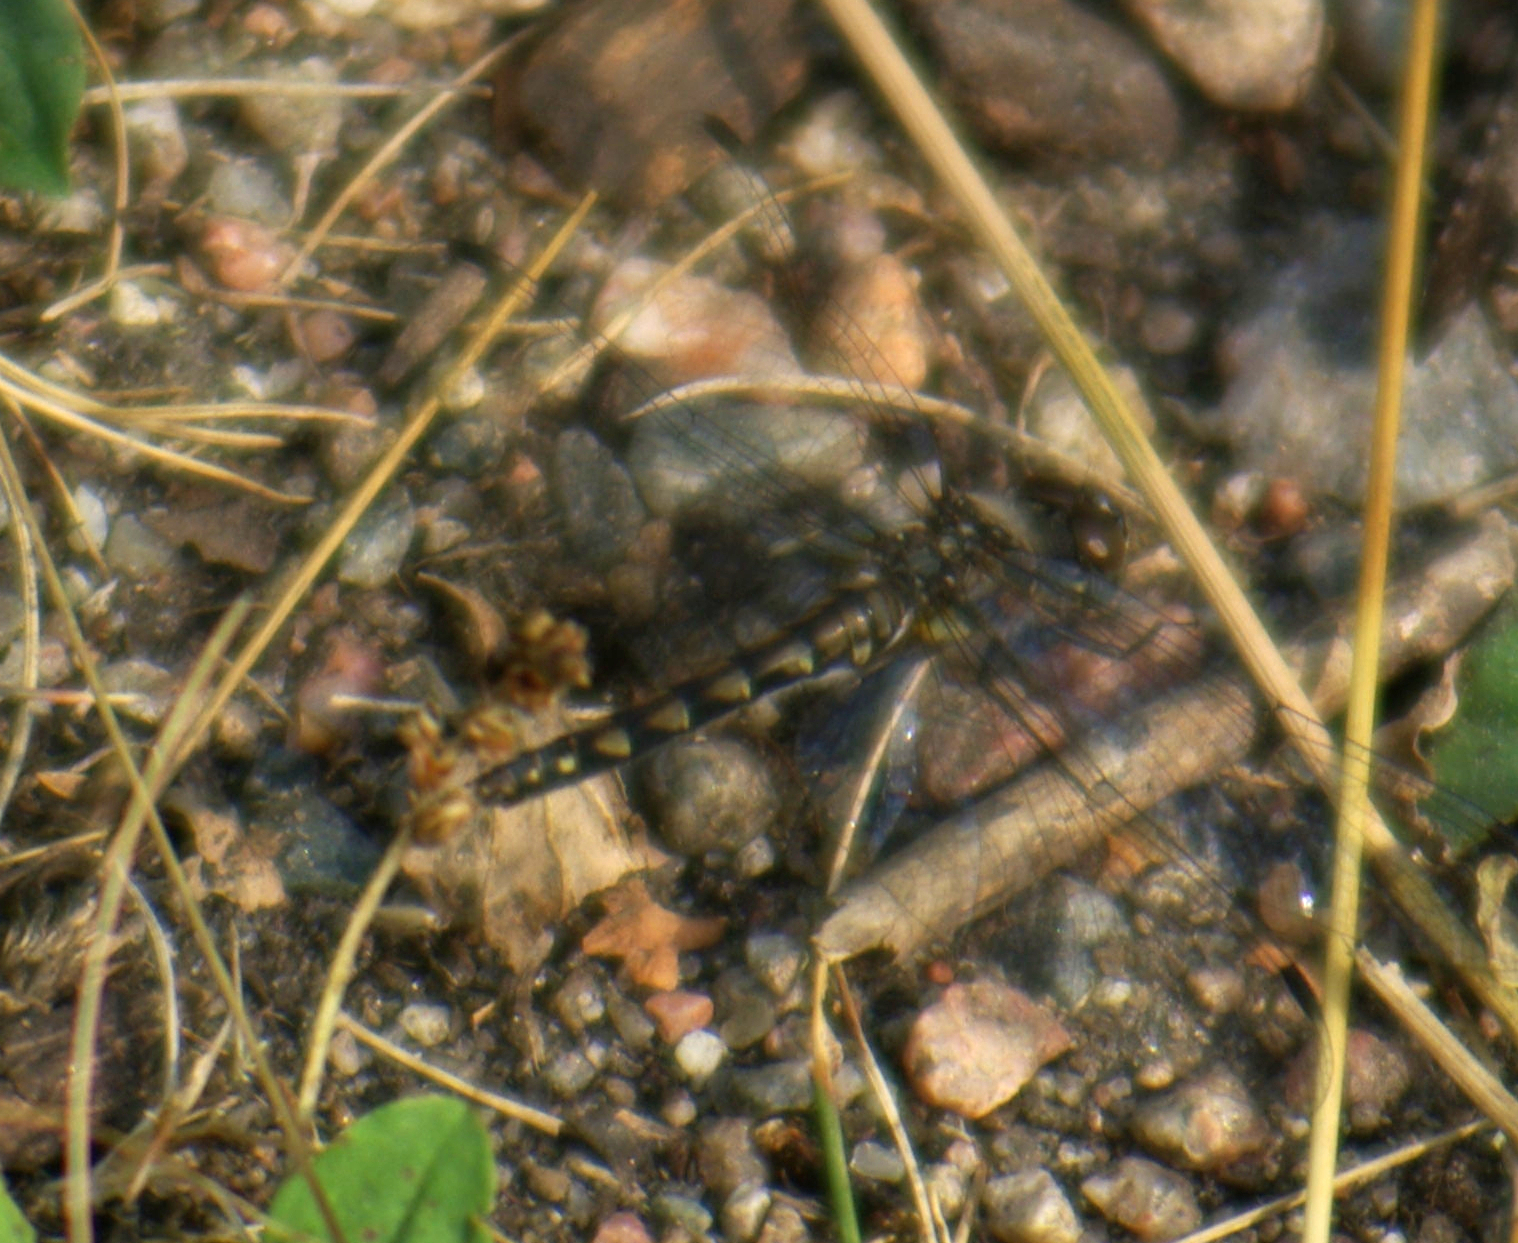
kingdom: Animalia
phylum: Arthropoda
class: Insecta
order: Odonata
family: Libellulidae
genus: Sympetrum
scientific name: Sympetrum danae
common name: Black darter
